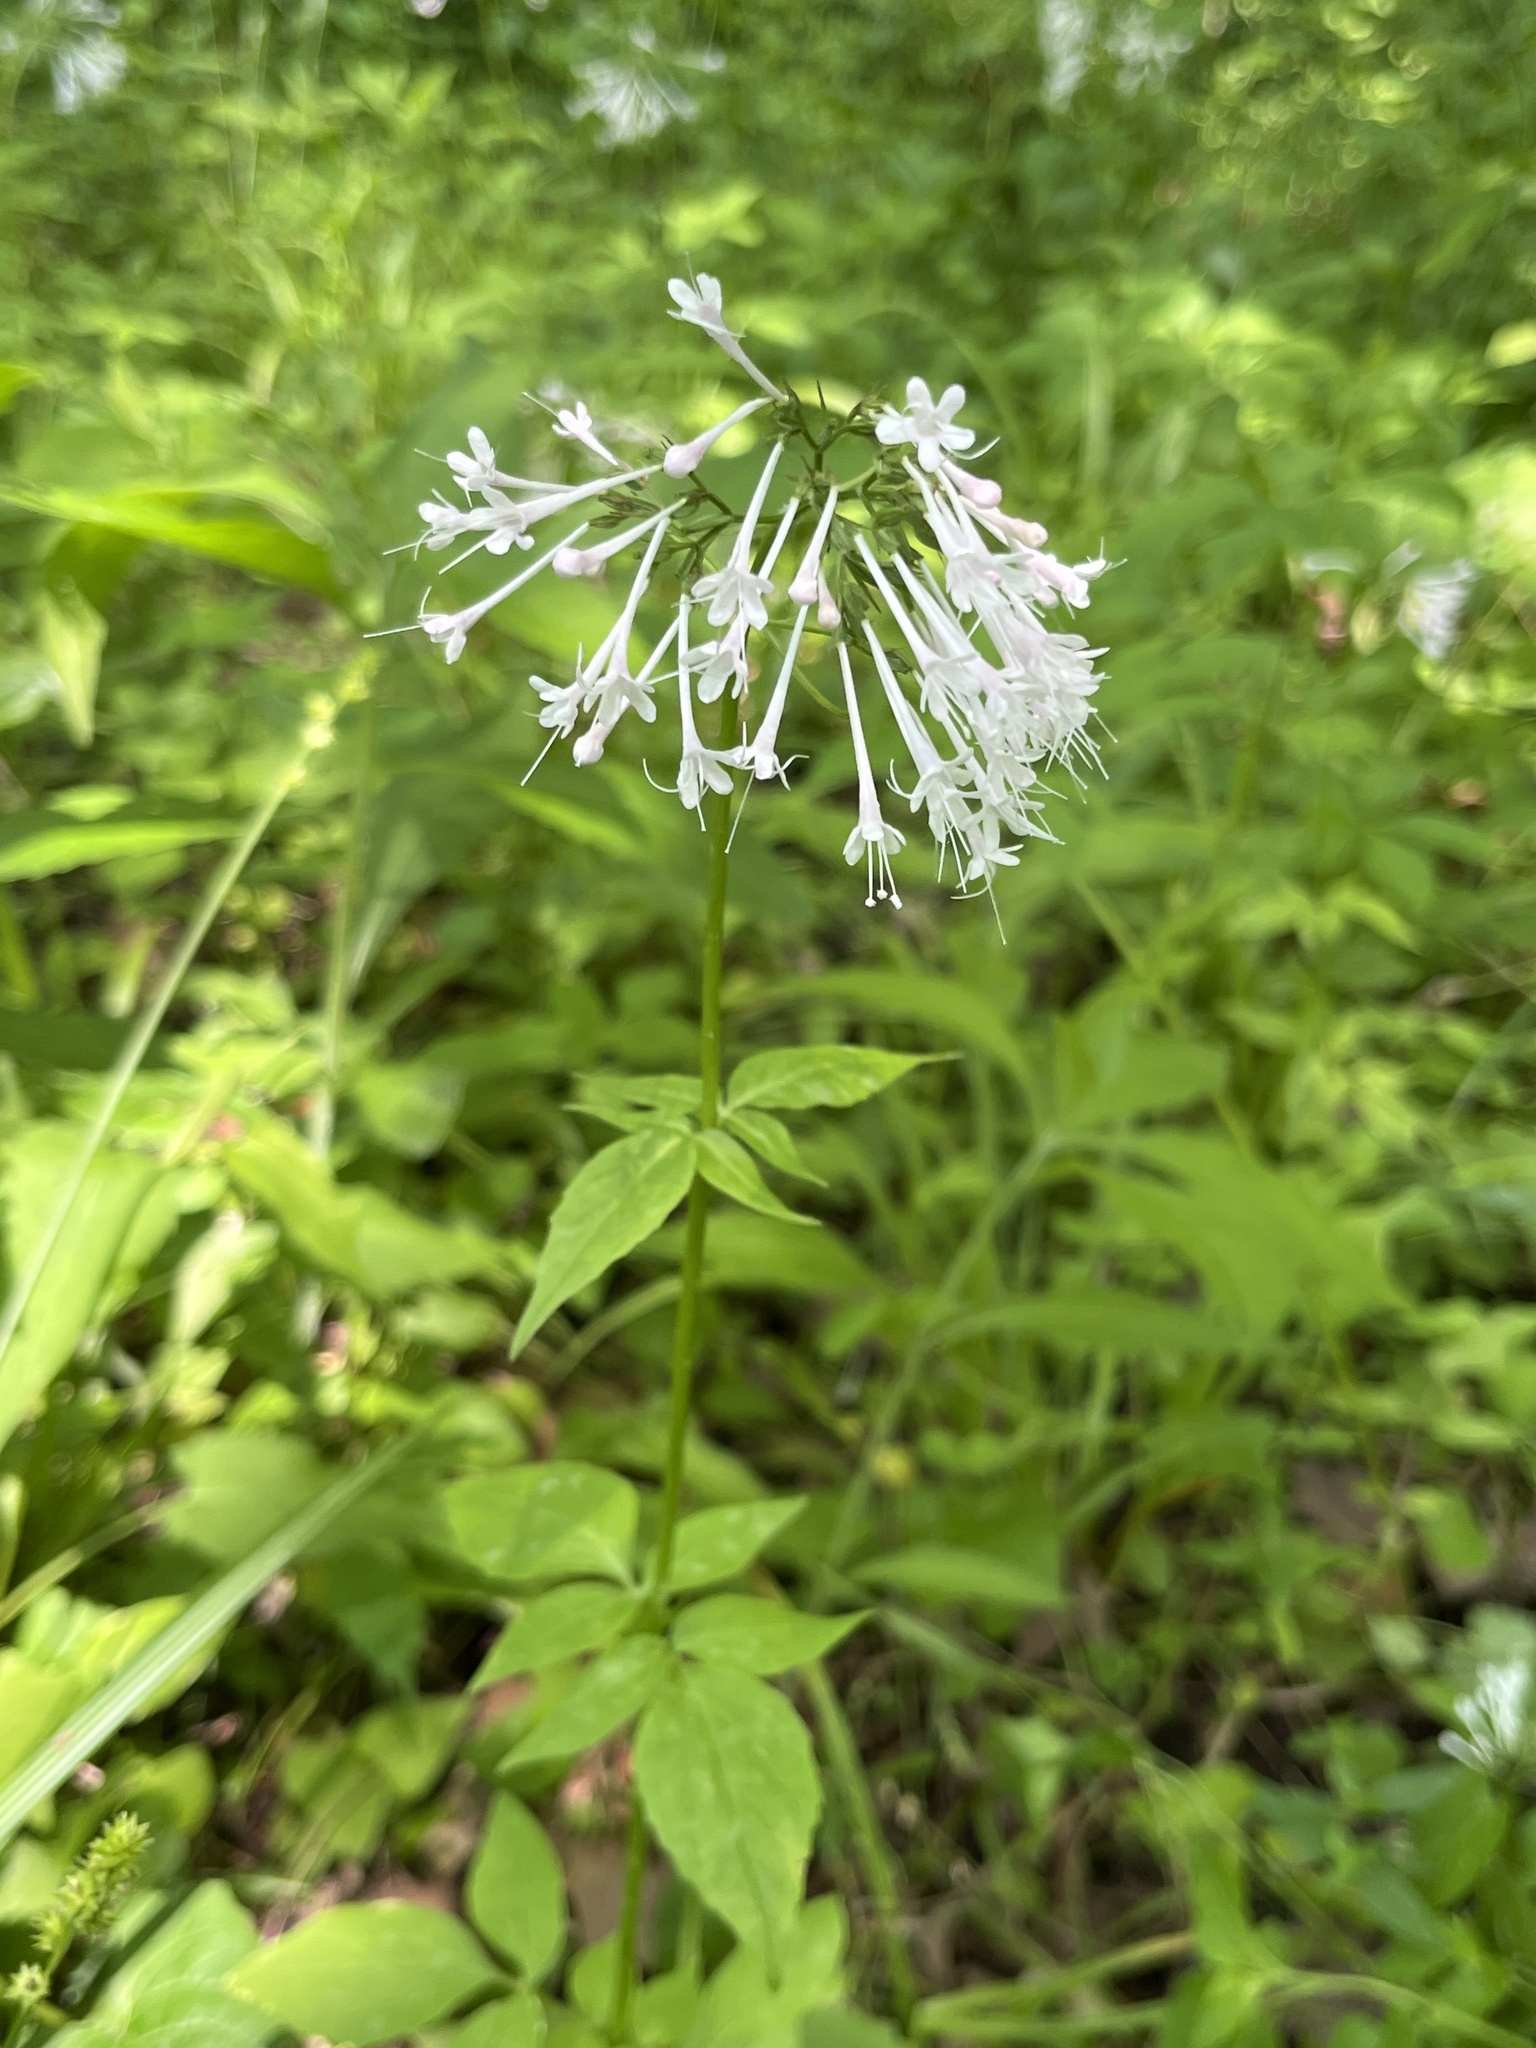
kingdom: Plantae
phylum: Tracheophyta
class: Magnoliopsida
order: Dipsacales
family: Caprifoliaceae
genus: Valeriana
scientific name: Valeriana pauciflora
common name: Long-tube valeriana
